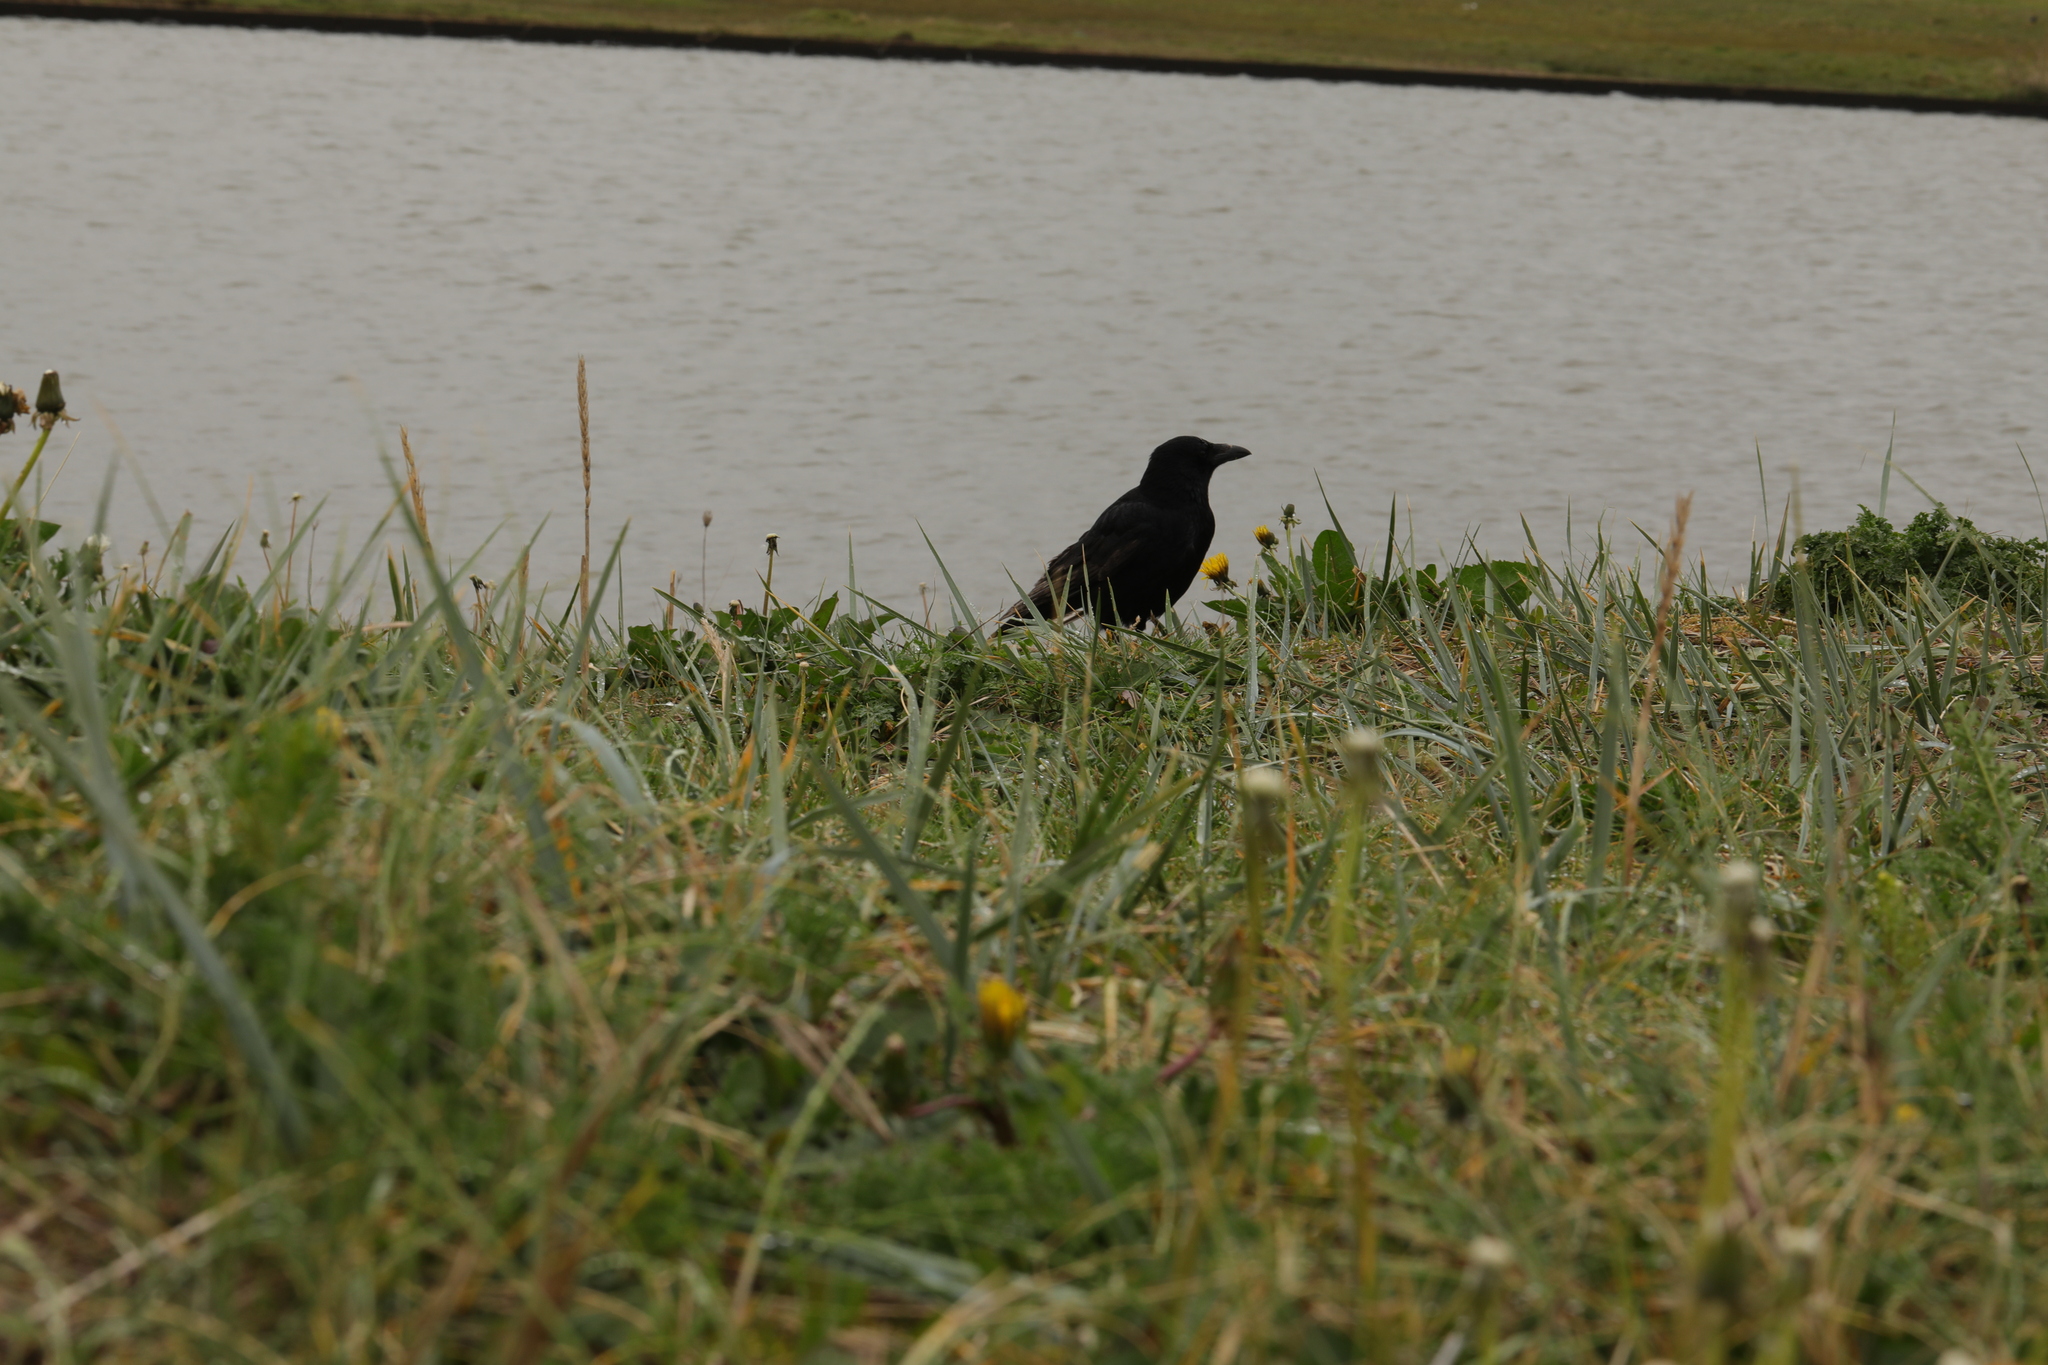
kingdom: Animalia
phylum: Chordata
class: Aves
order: Passeriformes
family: Corvidae
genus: Corvus
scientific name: Corvus corone
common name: Carrion crow
